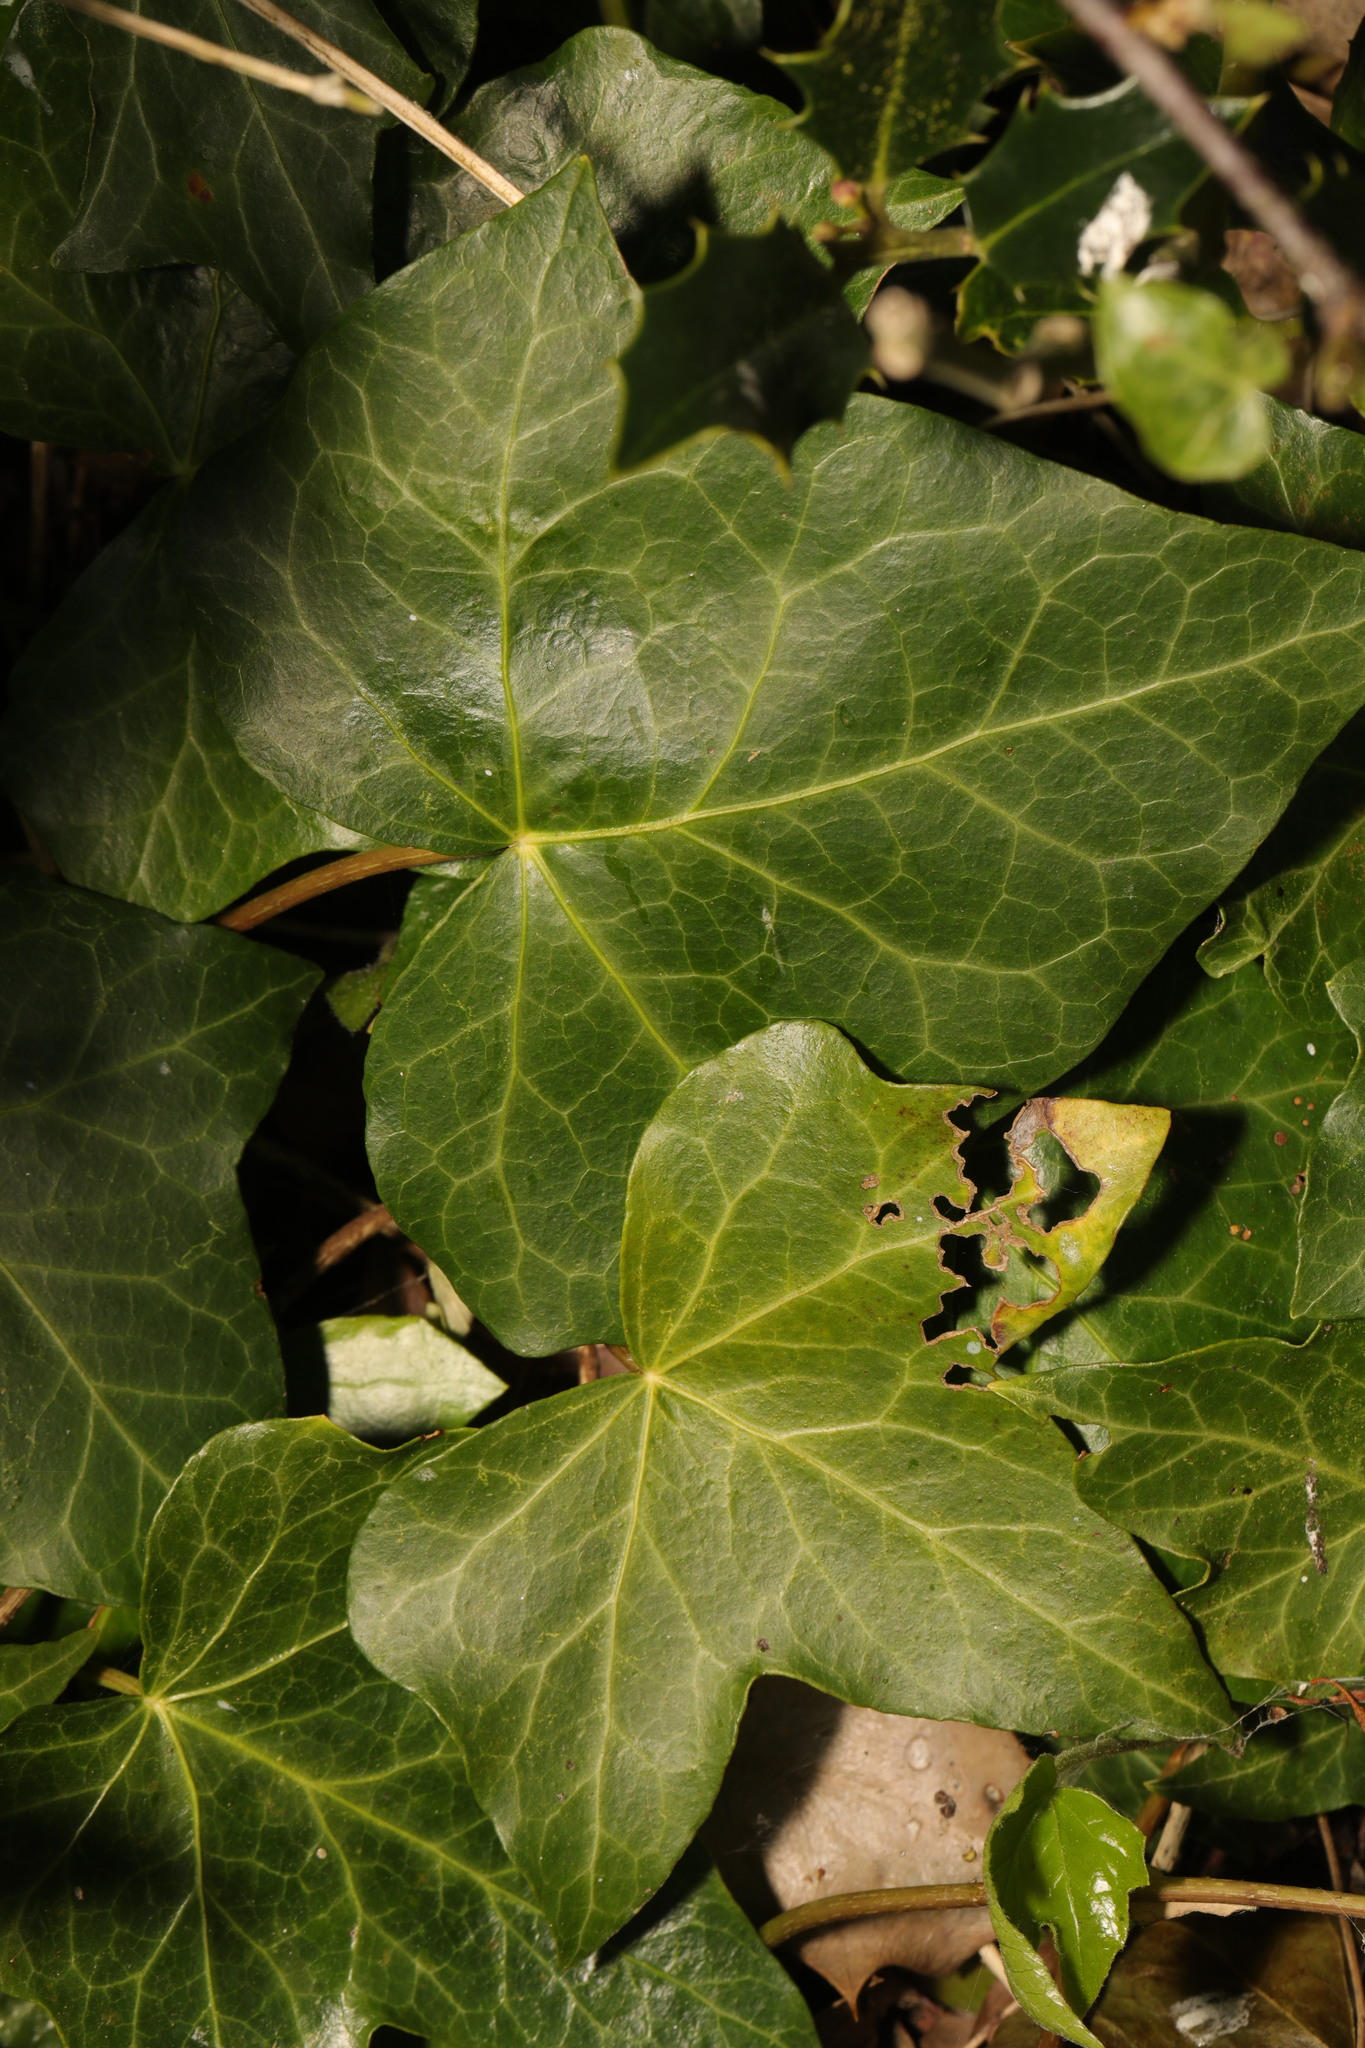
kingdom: Plantae
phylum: Tracheophyta
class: Magnoliopsida
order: Apiales
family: Araliaceae
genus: Hedera
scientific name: Hedera helix
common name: Ivy
